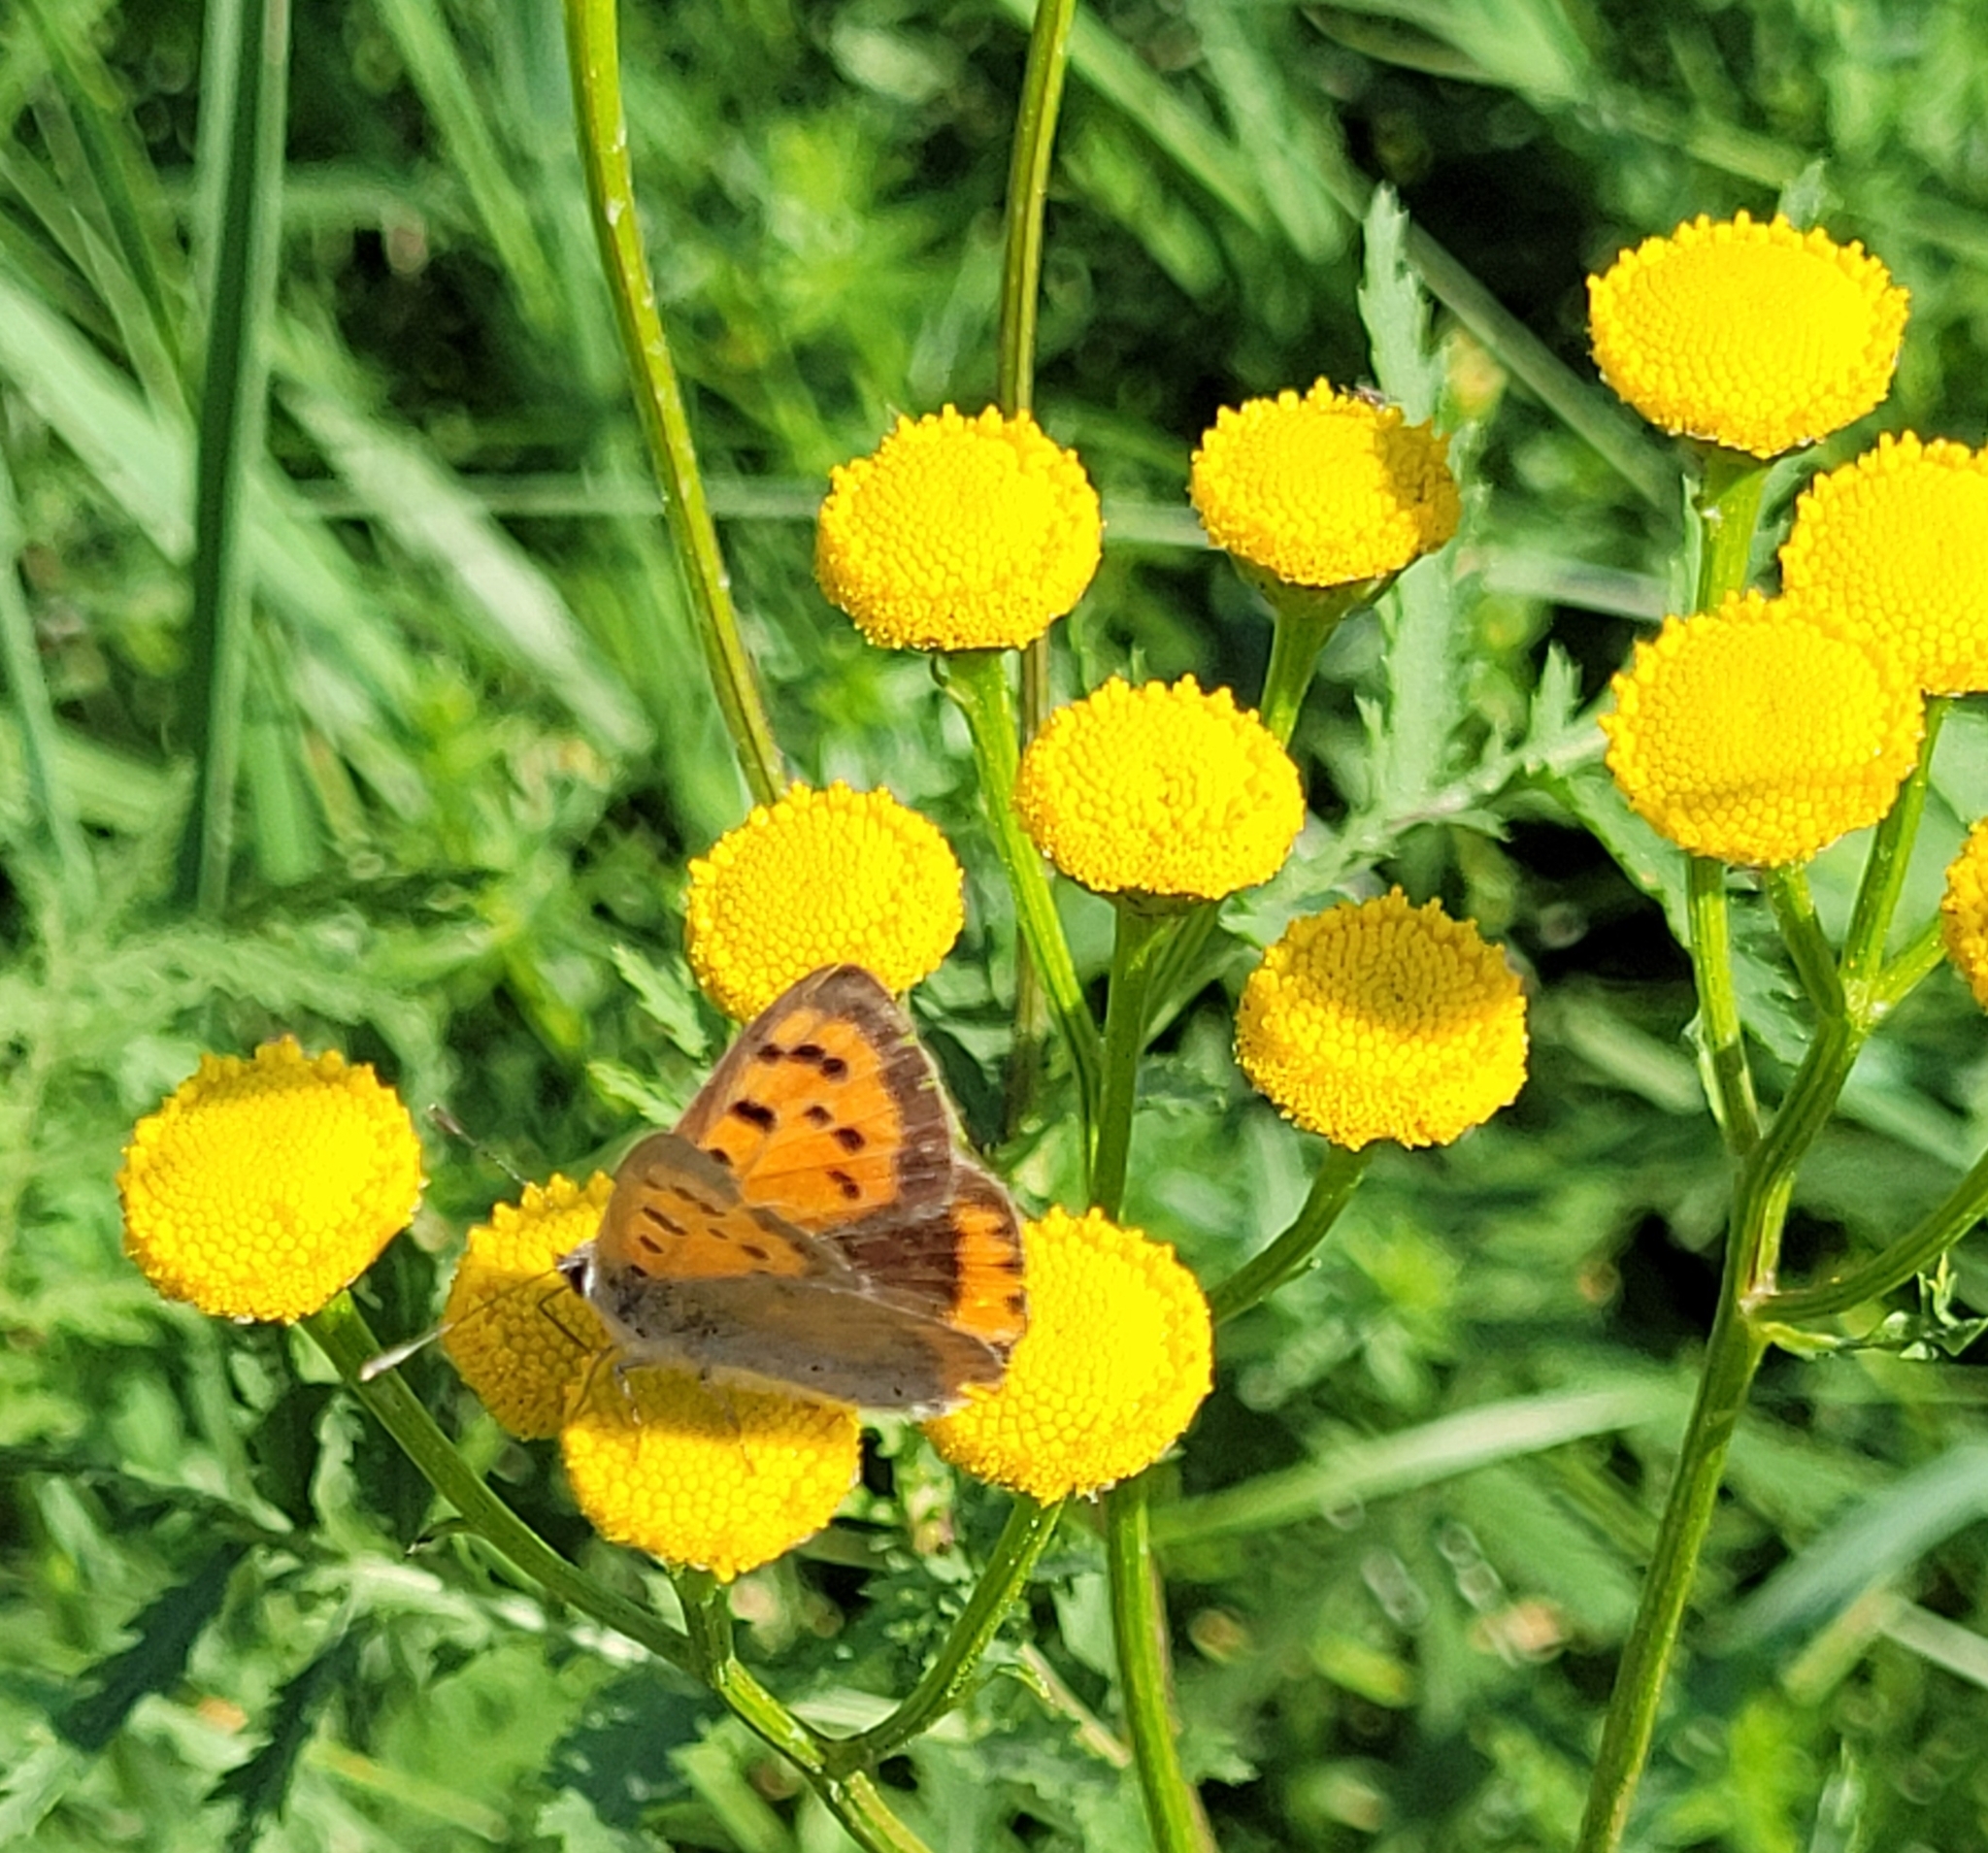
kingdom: Animalia
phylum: Arthropoda
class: Insecta
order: Lepidoptera
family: Lycaenidae
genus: Lycaena
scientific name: Lycaena phlaeas
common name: Small copper
